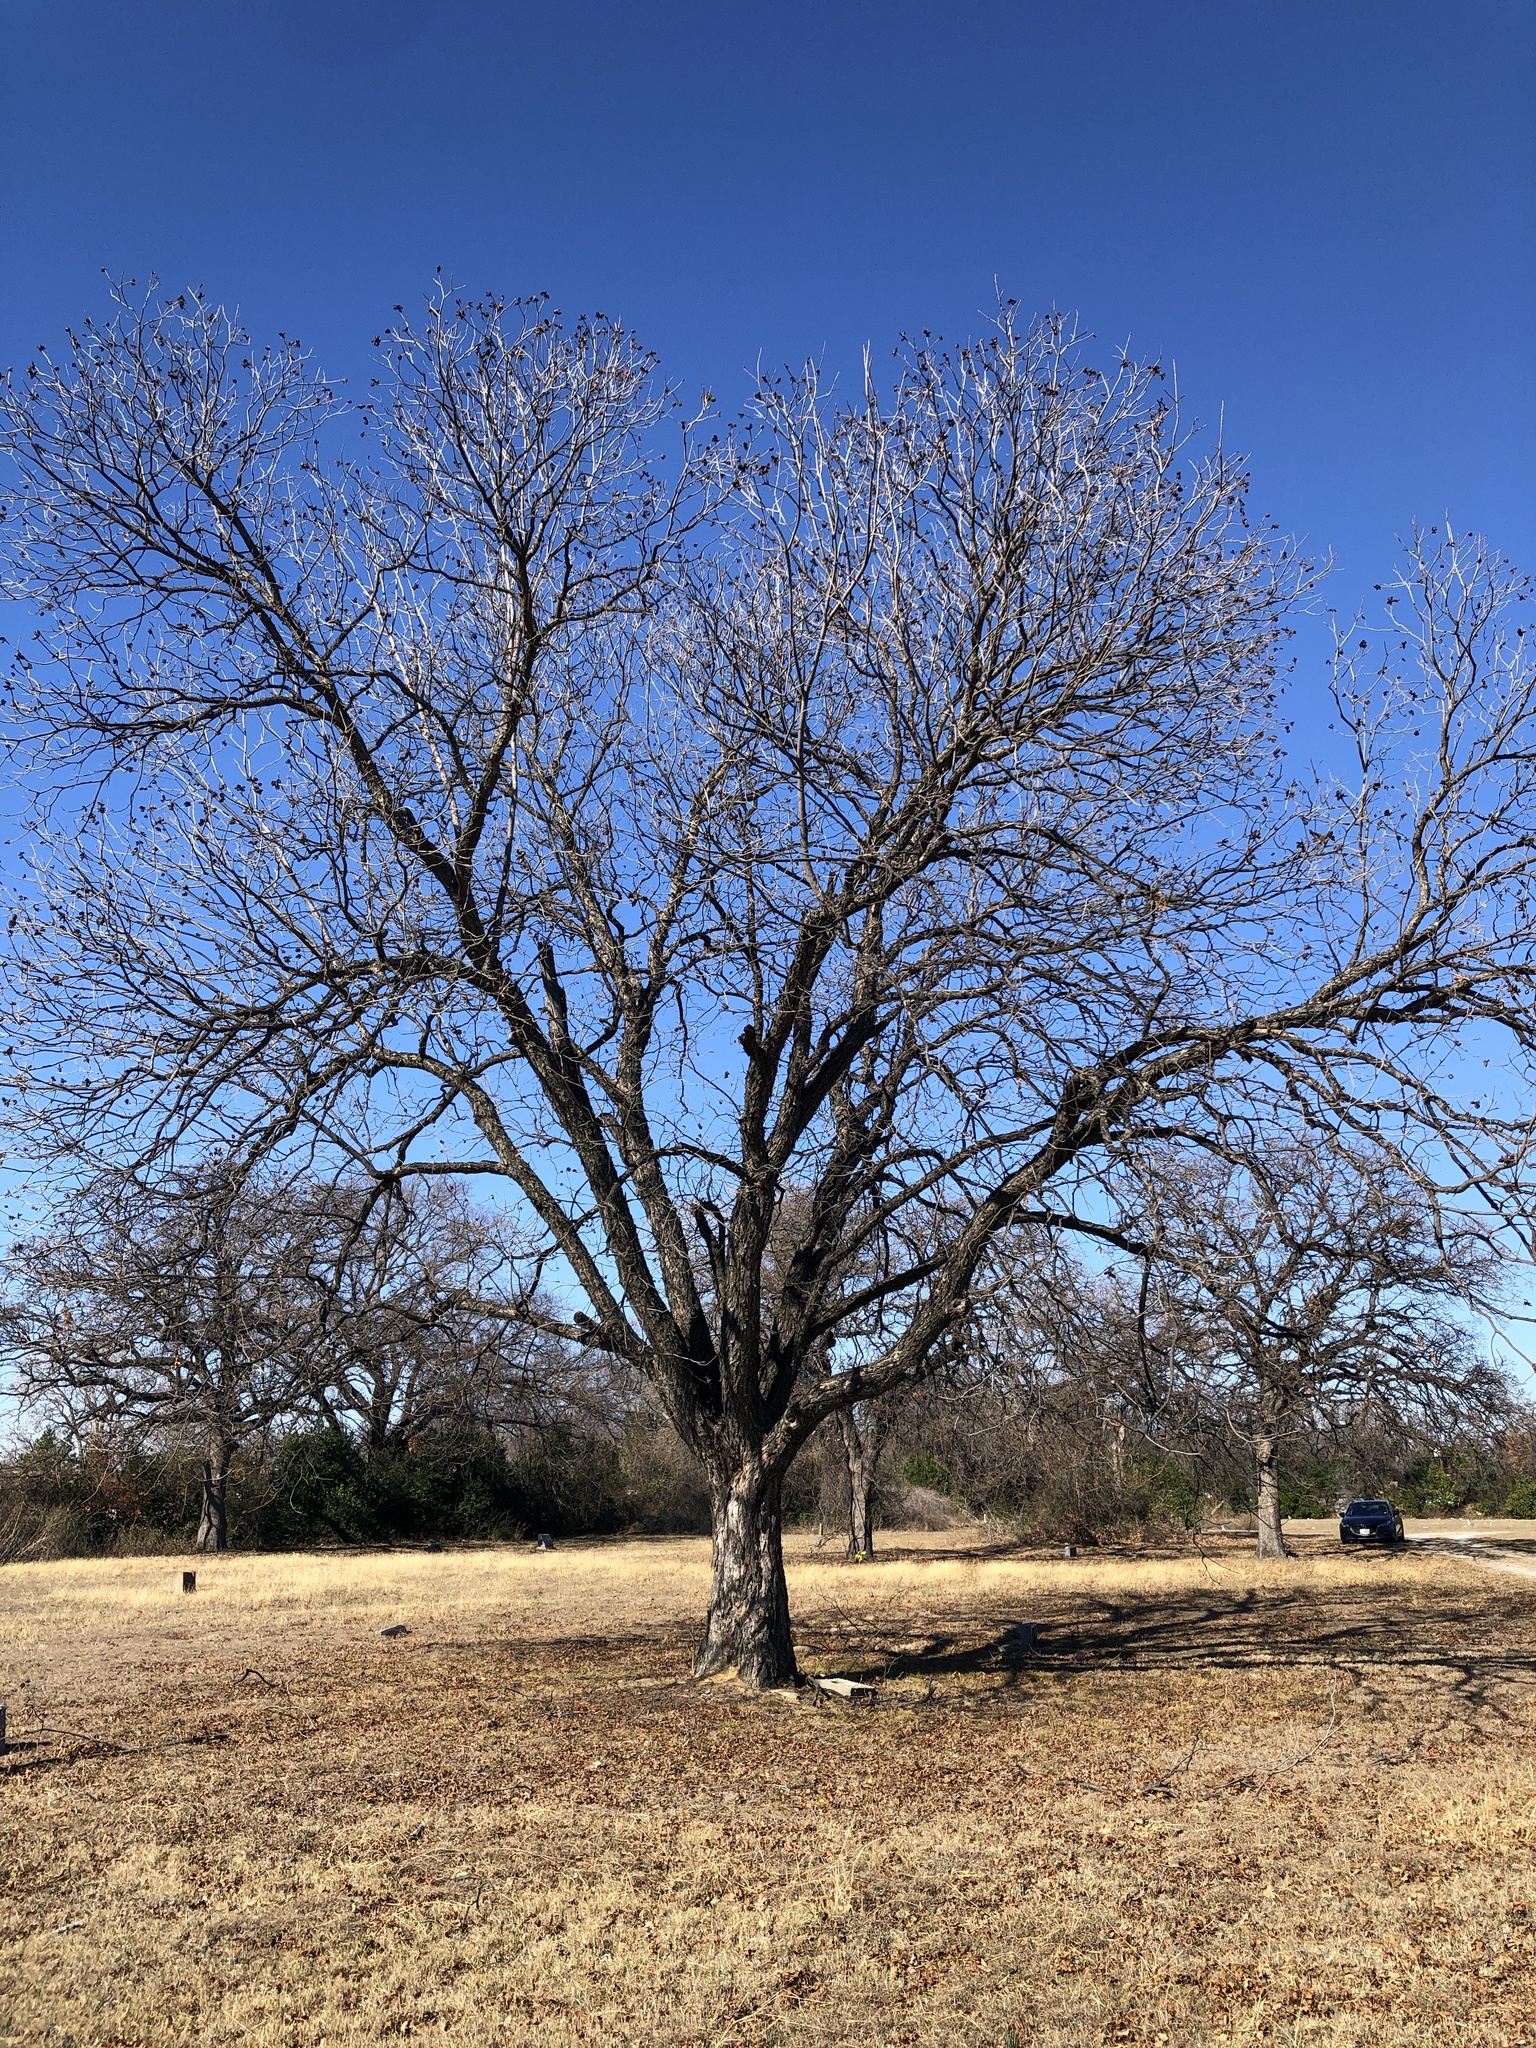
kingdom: Plantae
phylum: Tracheophyta
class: Magnoliopsida
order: Fagales
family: Juglandaceae
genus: Carya
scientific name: Carya illinoinensis
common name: Pecan
